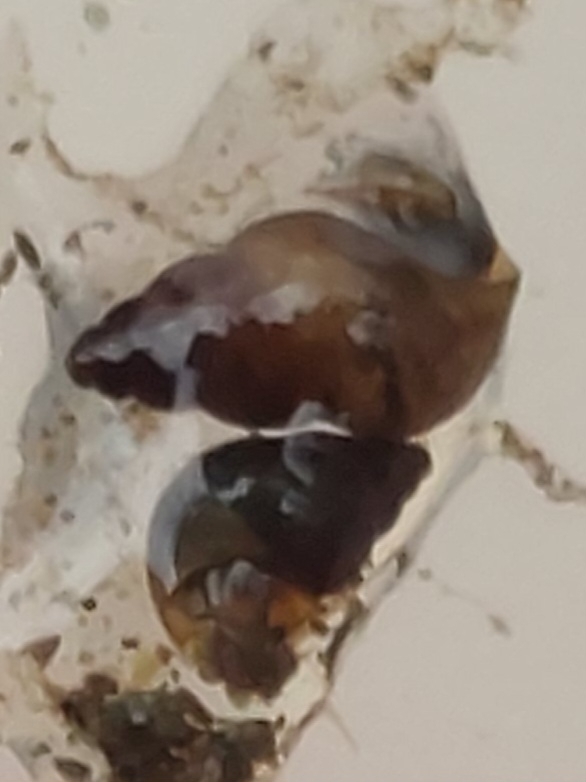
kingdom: Animalia
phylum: Mollusca
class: Gastropoda
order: Littorinimorpha
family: Tateidae
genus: Potamopyrgus
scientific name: Potamopyrgus antipodarum
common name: Jenkins' spire snail
